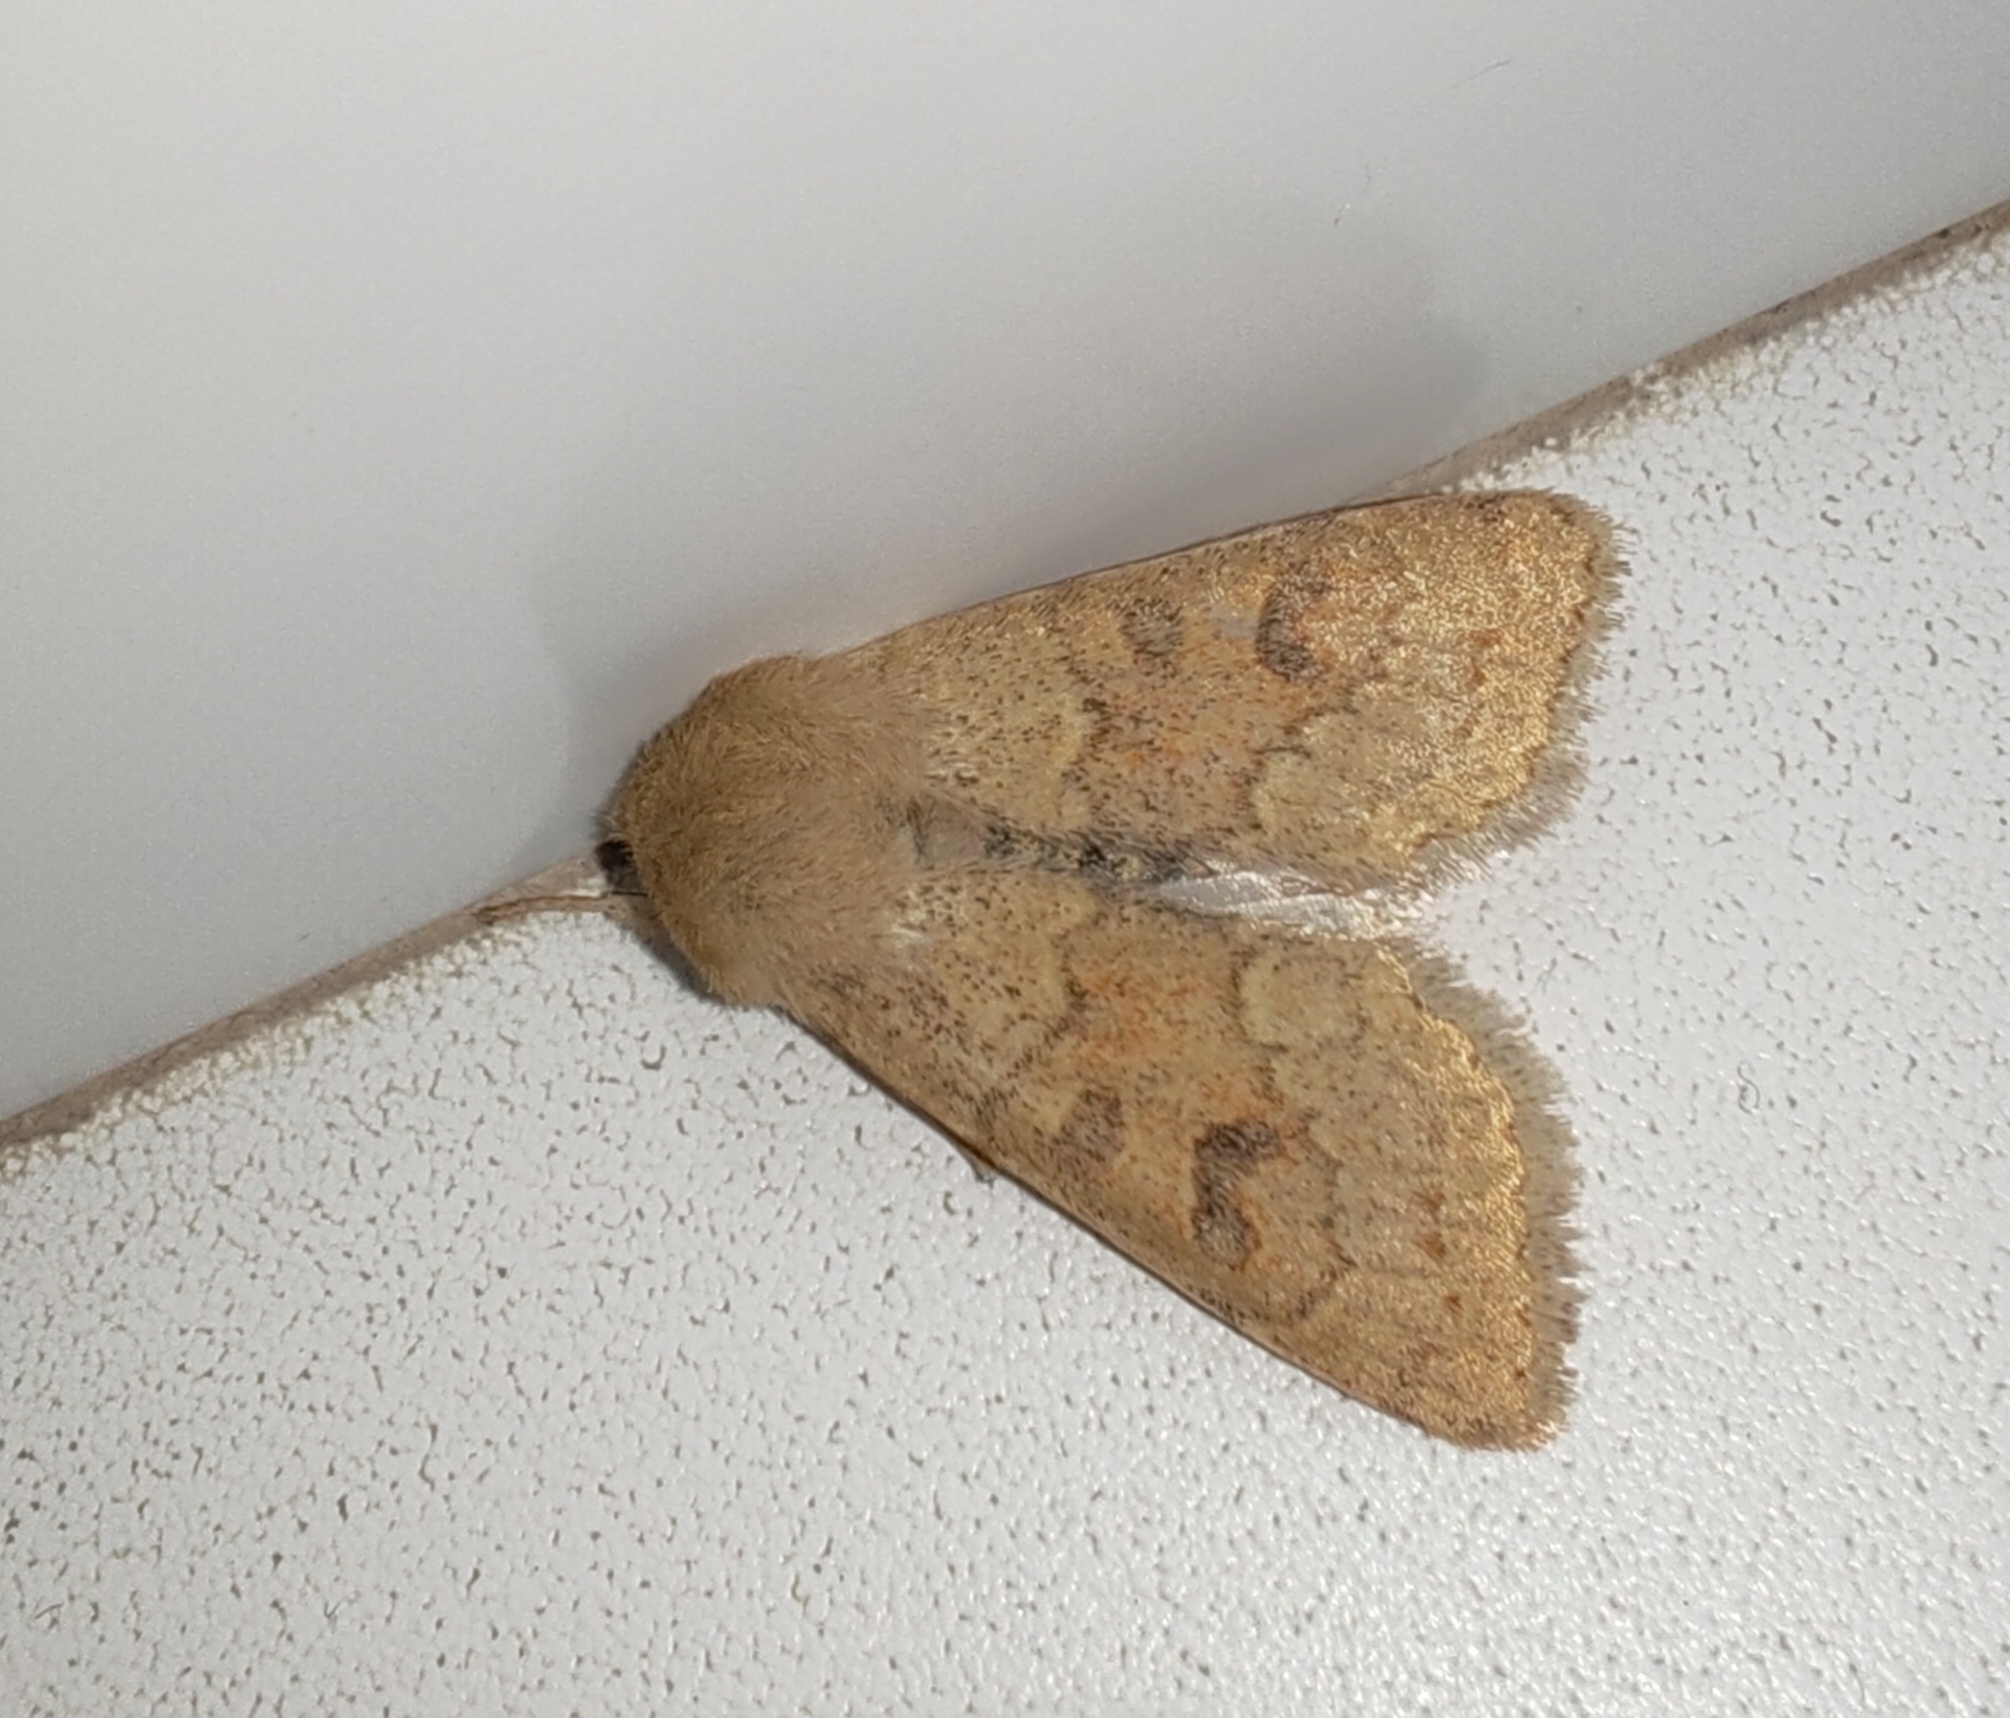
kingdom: Animalia
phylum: Arthropoda
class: Insecta
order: Lepidoptera
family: Noctuidae
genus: Orthosia
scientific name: Orthosia miniosa
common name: Blossom underwing
